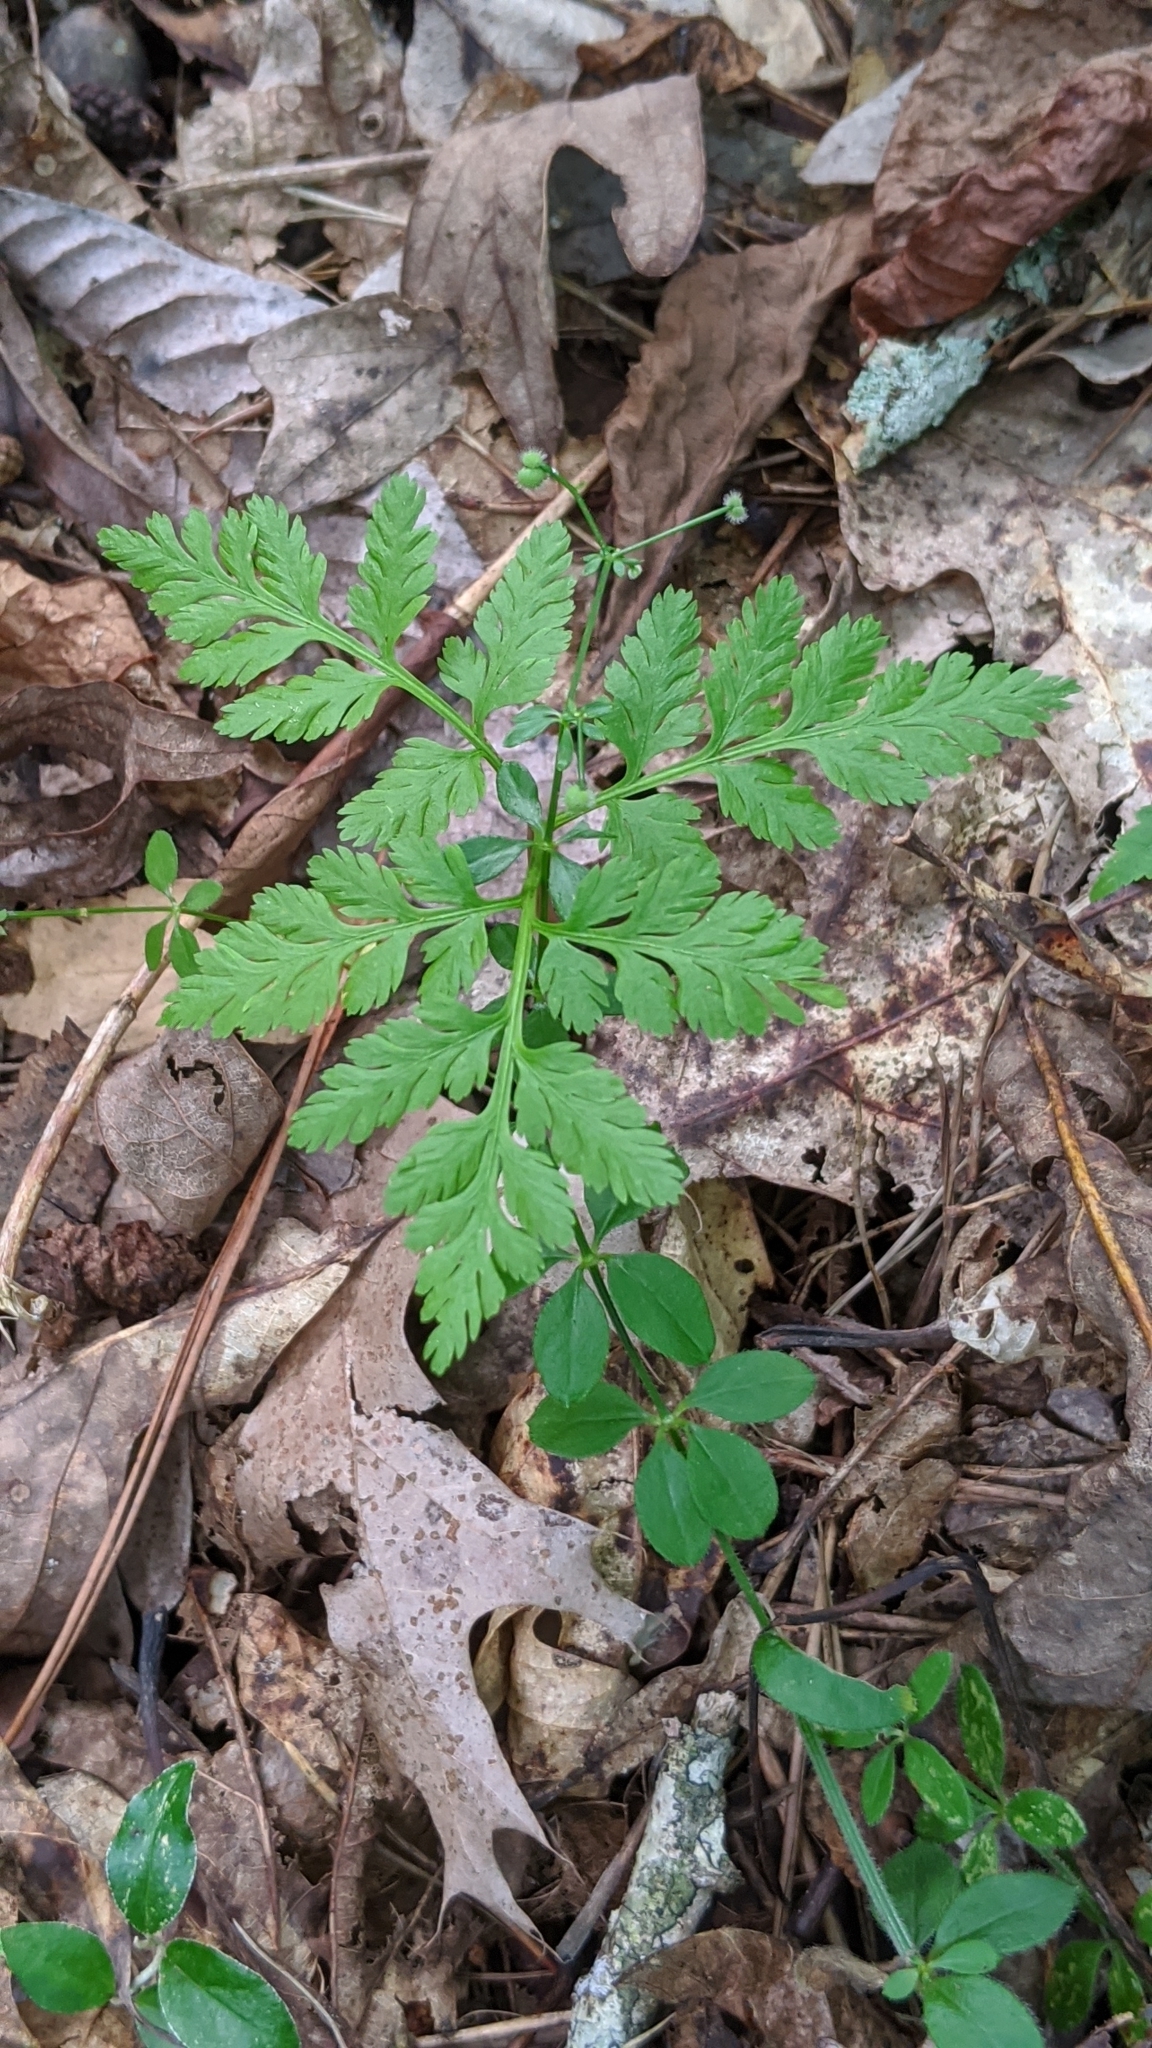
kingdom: Plantae
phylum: Tracheophyta
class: Polypodiopsida
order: Ophioglossales
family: Ophioglossaceae
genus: Botrypus
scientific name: Botrypus virginianus
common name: Common grapefern
